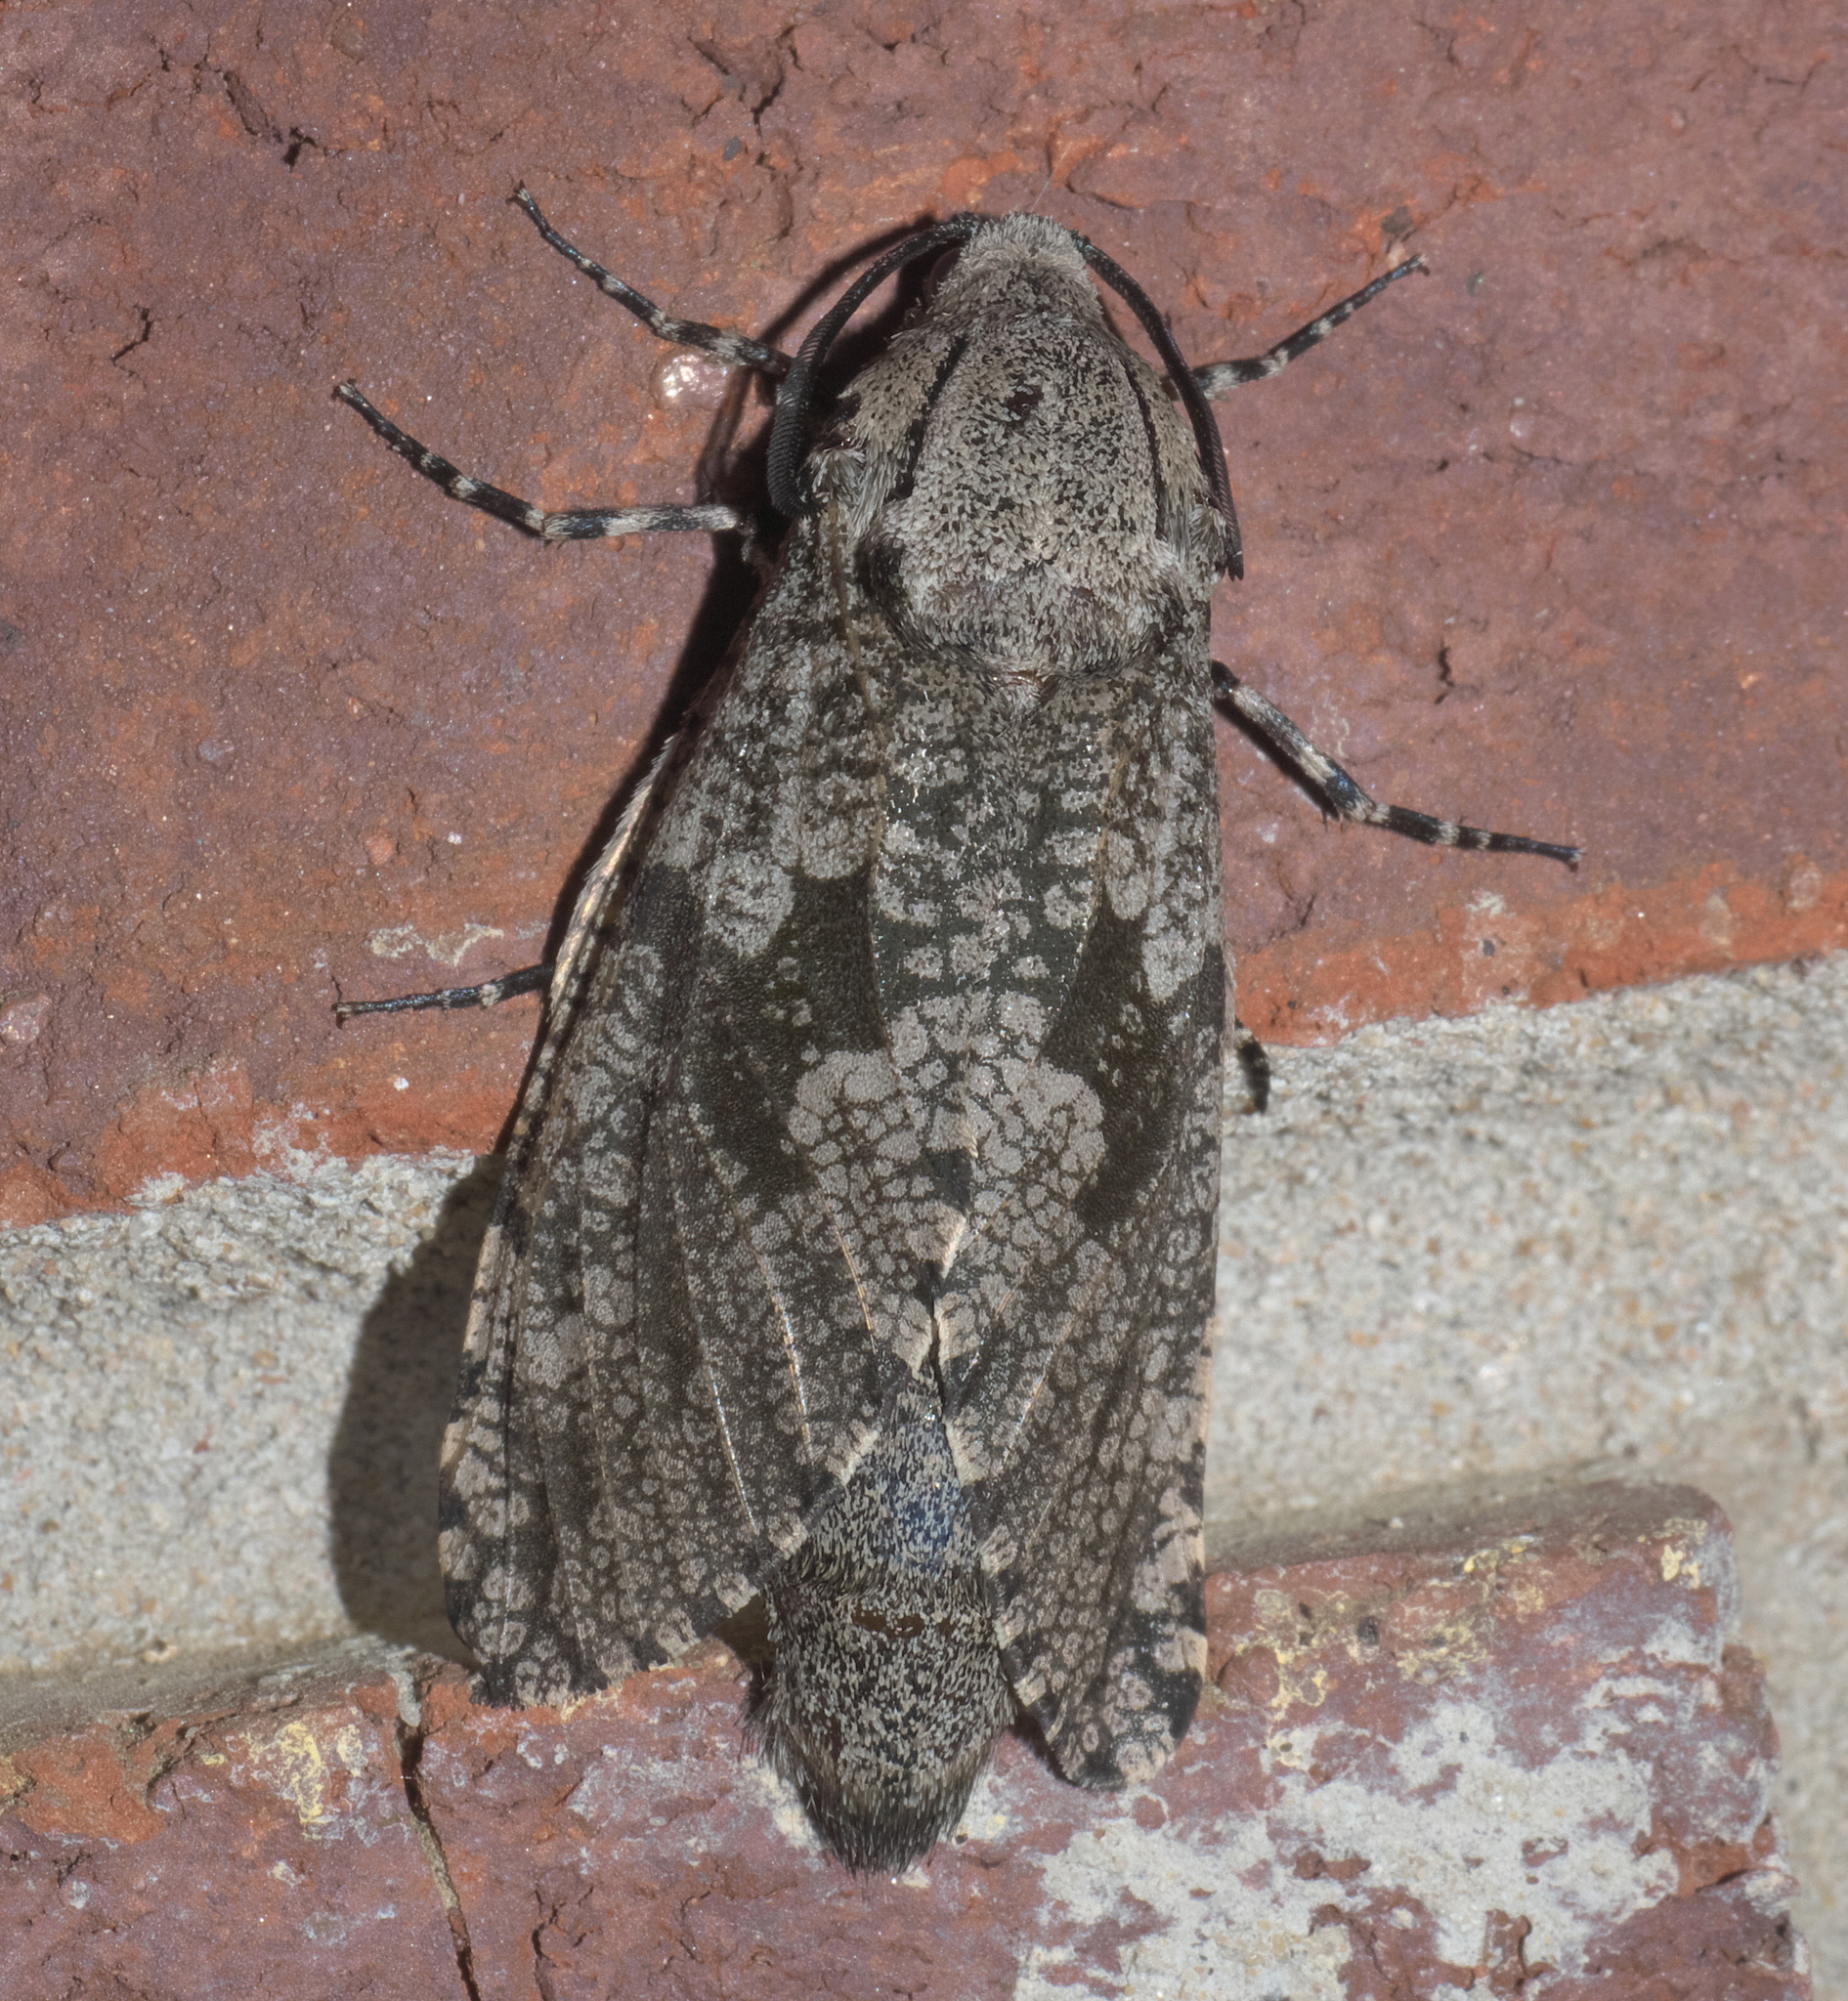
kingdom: Animalia
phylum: Arthropoda
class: Insecta
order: Lepidoptera
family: Cossidae
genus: Prionoxystus
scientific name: Prionoxystus robiniae
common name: Carpenterworm
